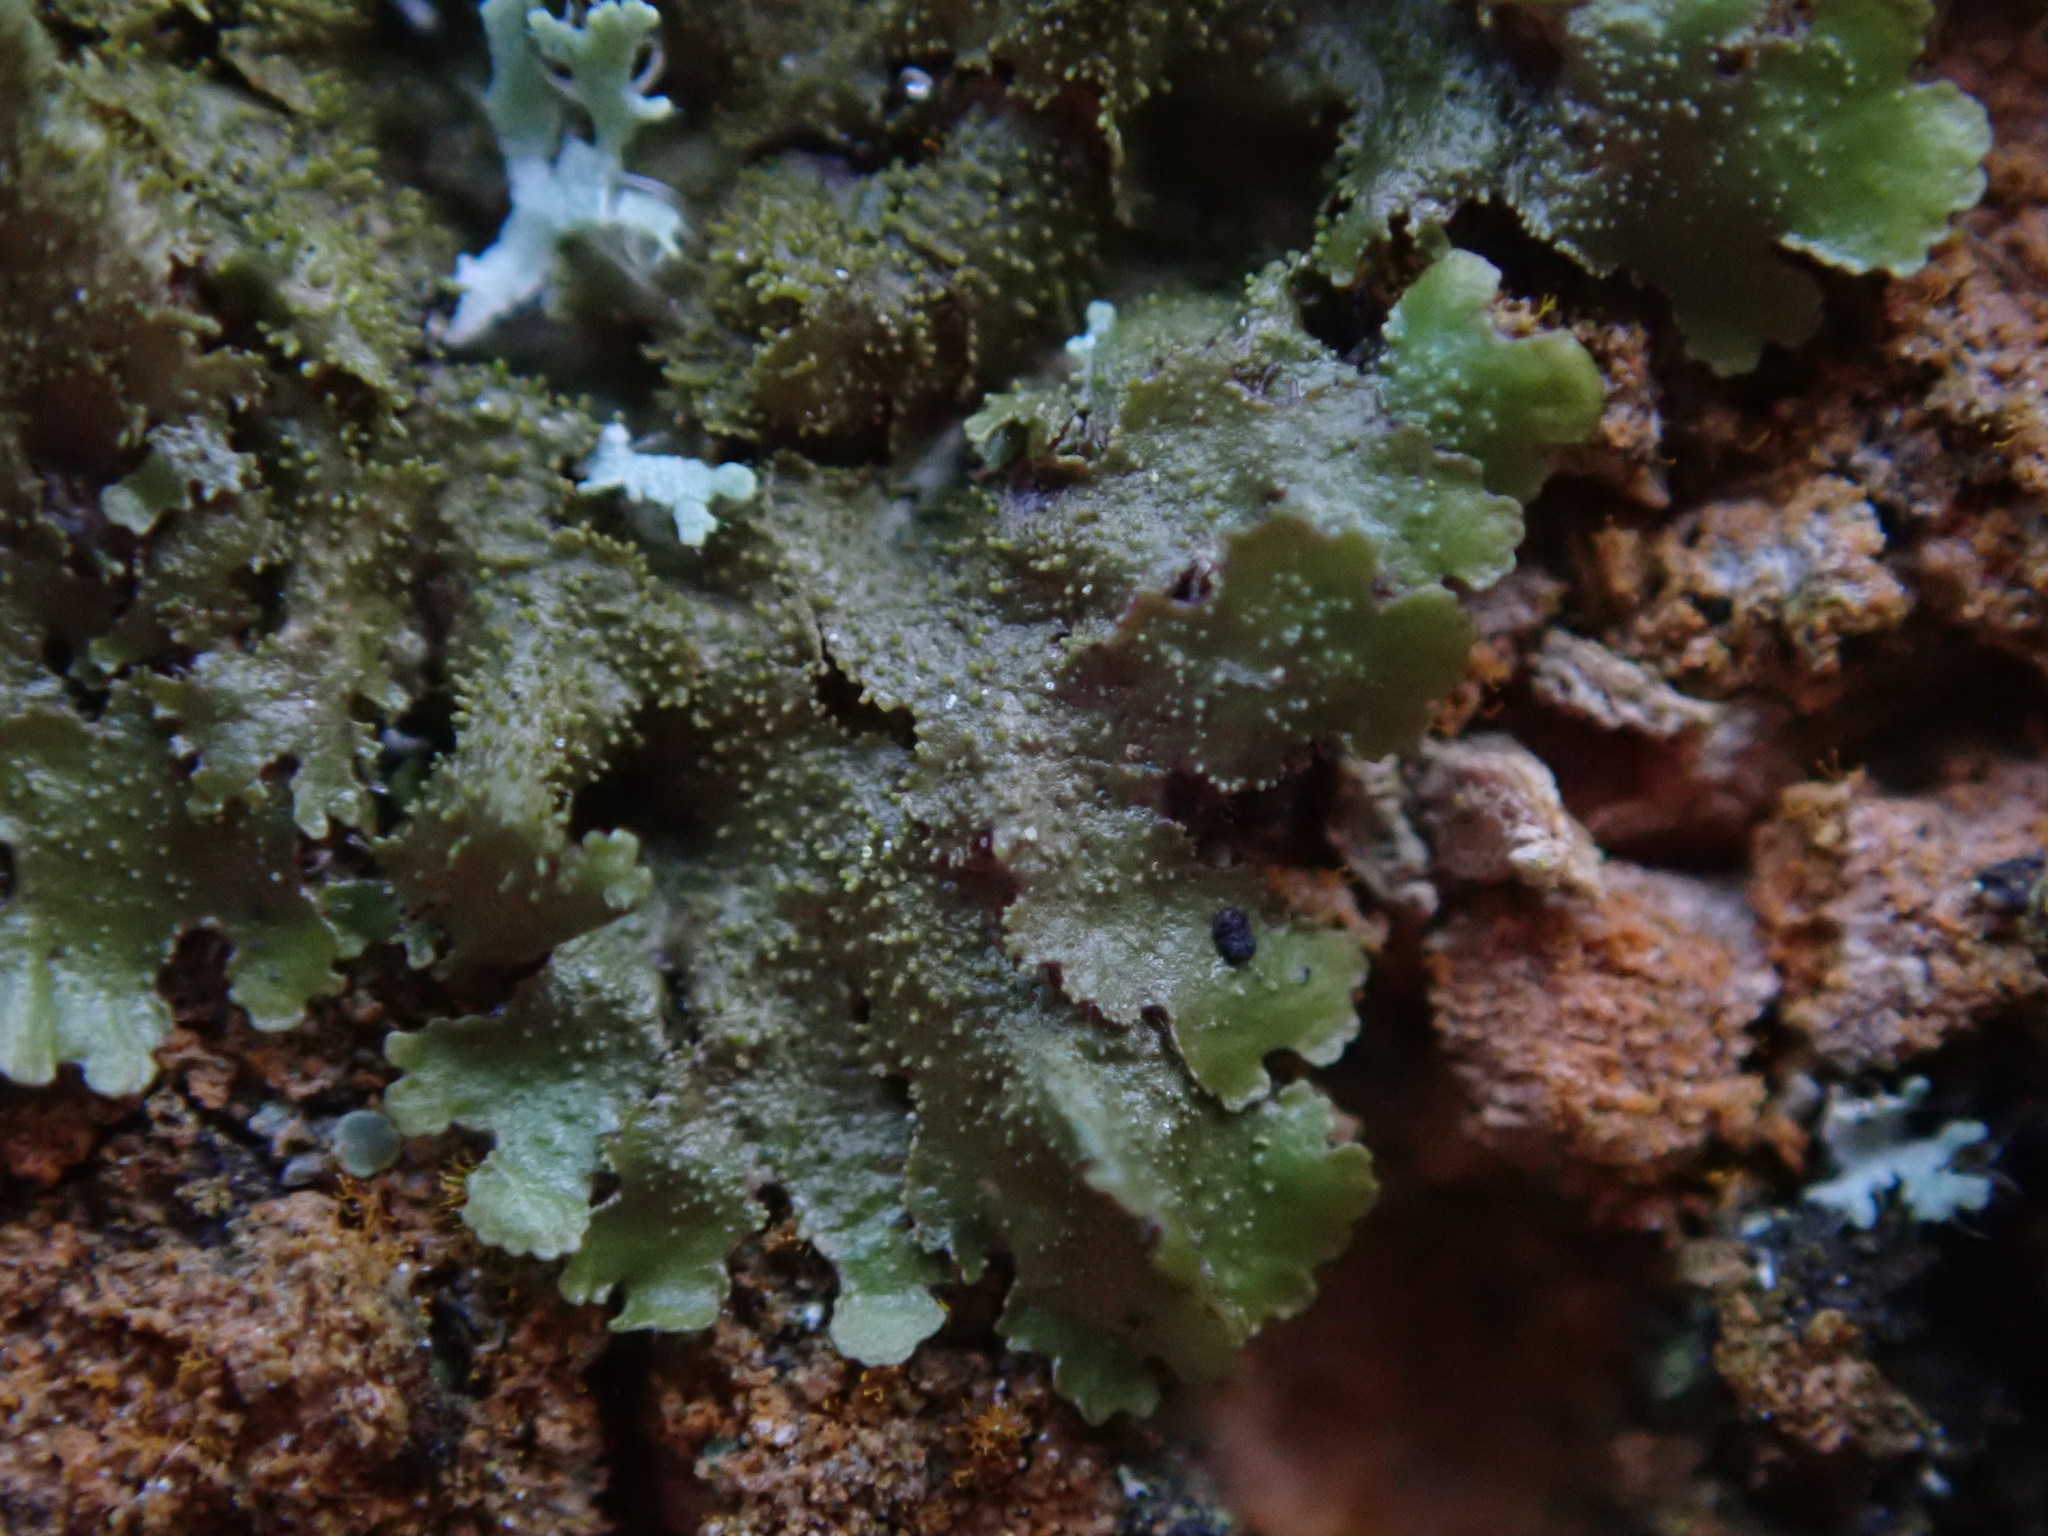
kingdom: Fungi
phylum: Ascomycota
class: Lecanoromycetes
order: Lecanorales
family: Parmeliaceae
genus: Melanohalea
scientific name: Melanohalea elegantula
